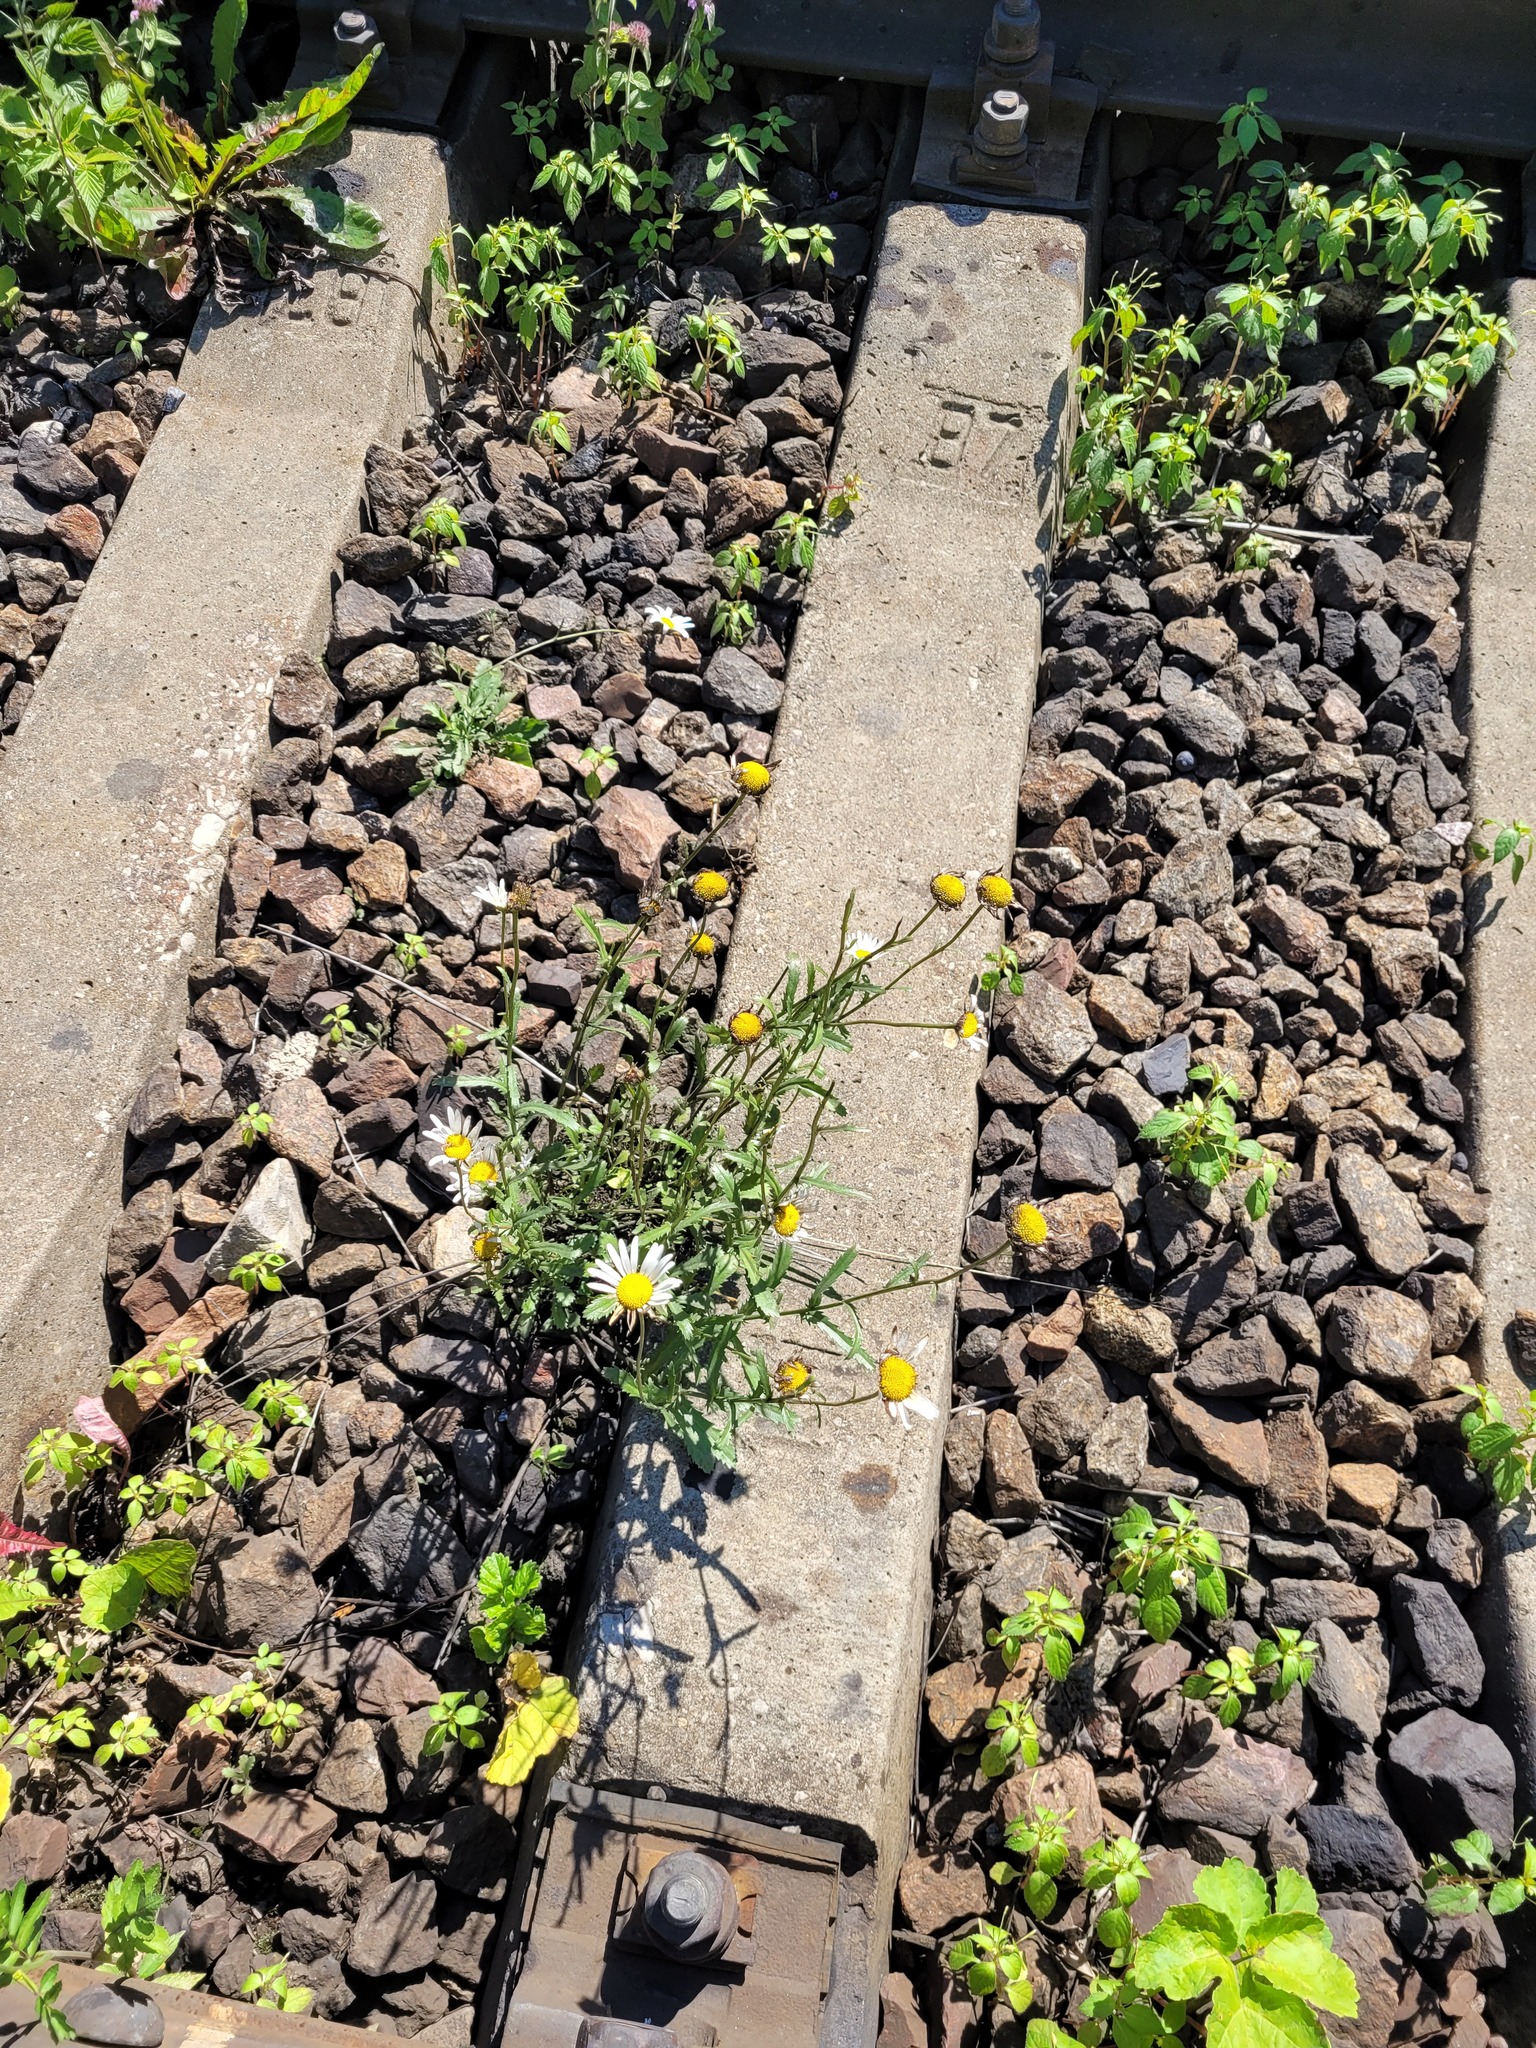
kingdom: Plantae
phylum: Tracheophyta
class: Magnoliopsida
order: Asterales
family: Asteraceae
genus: Leucanthemum
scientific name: Leucanthemum vulgare
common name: Oxeye daisy
